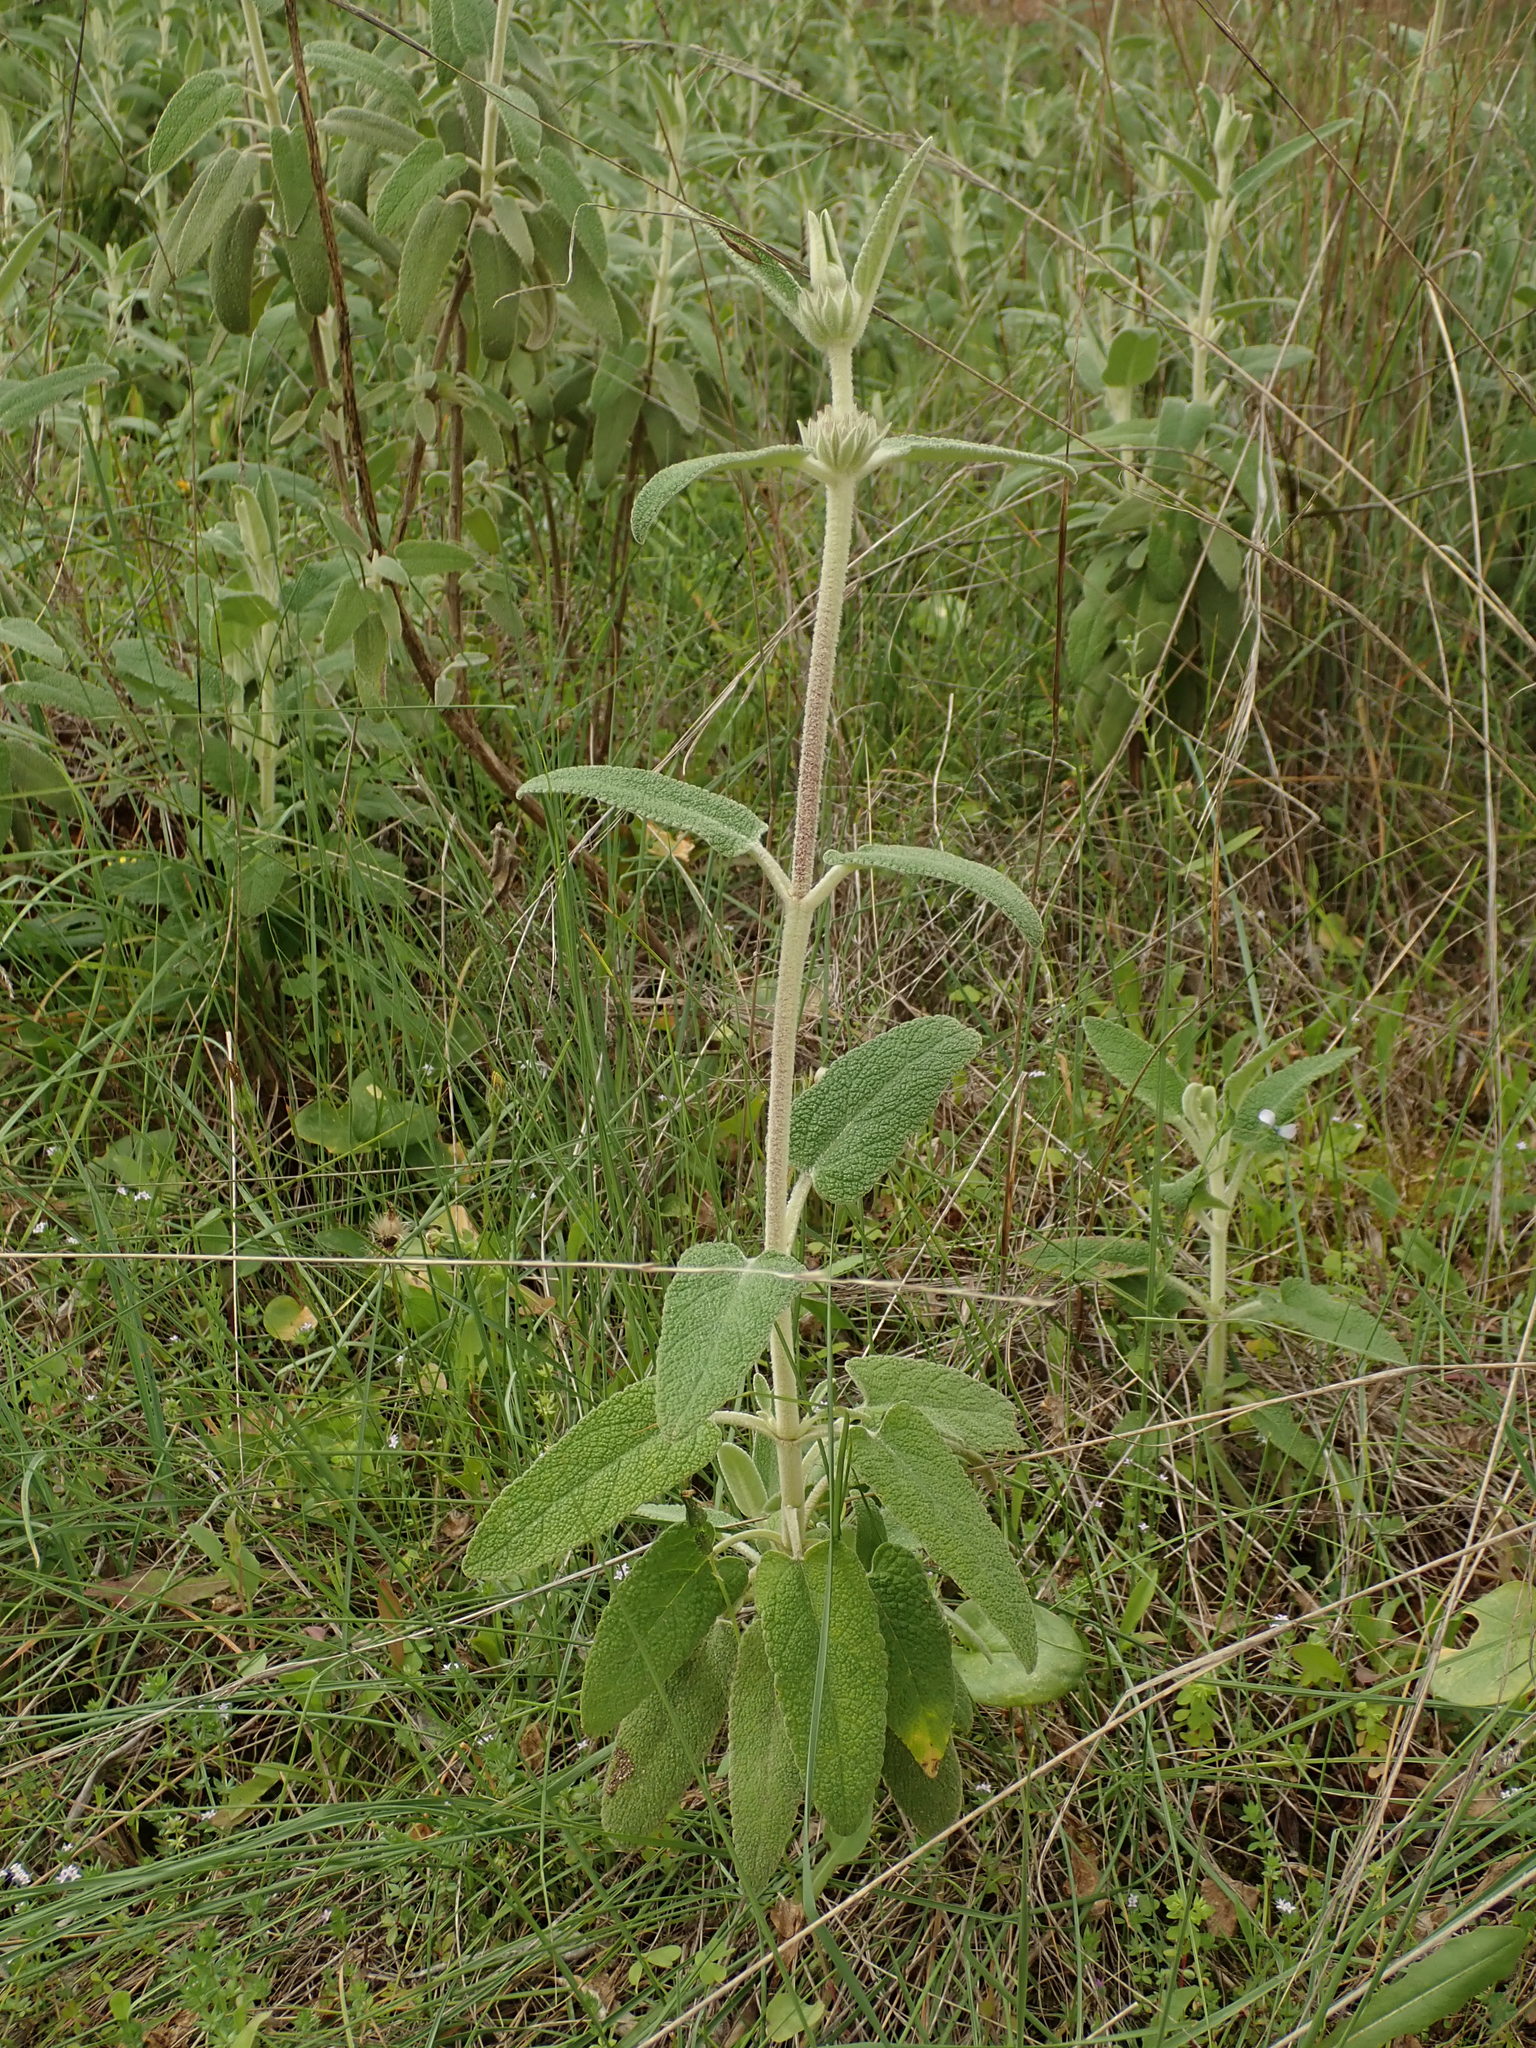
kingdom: Plantae
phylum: Tracheophyta
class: Magnoliopsida
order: Lamiales
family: Lamiaceae
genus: Phlomis
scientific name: Phlomis purpurea
